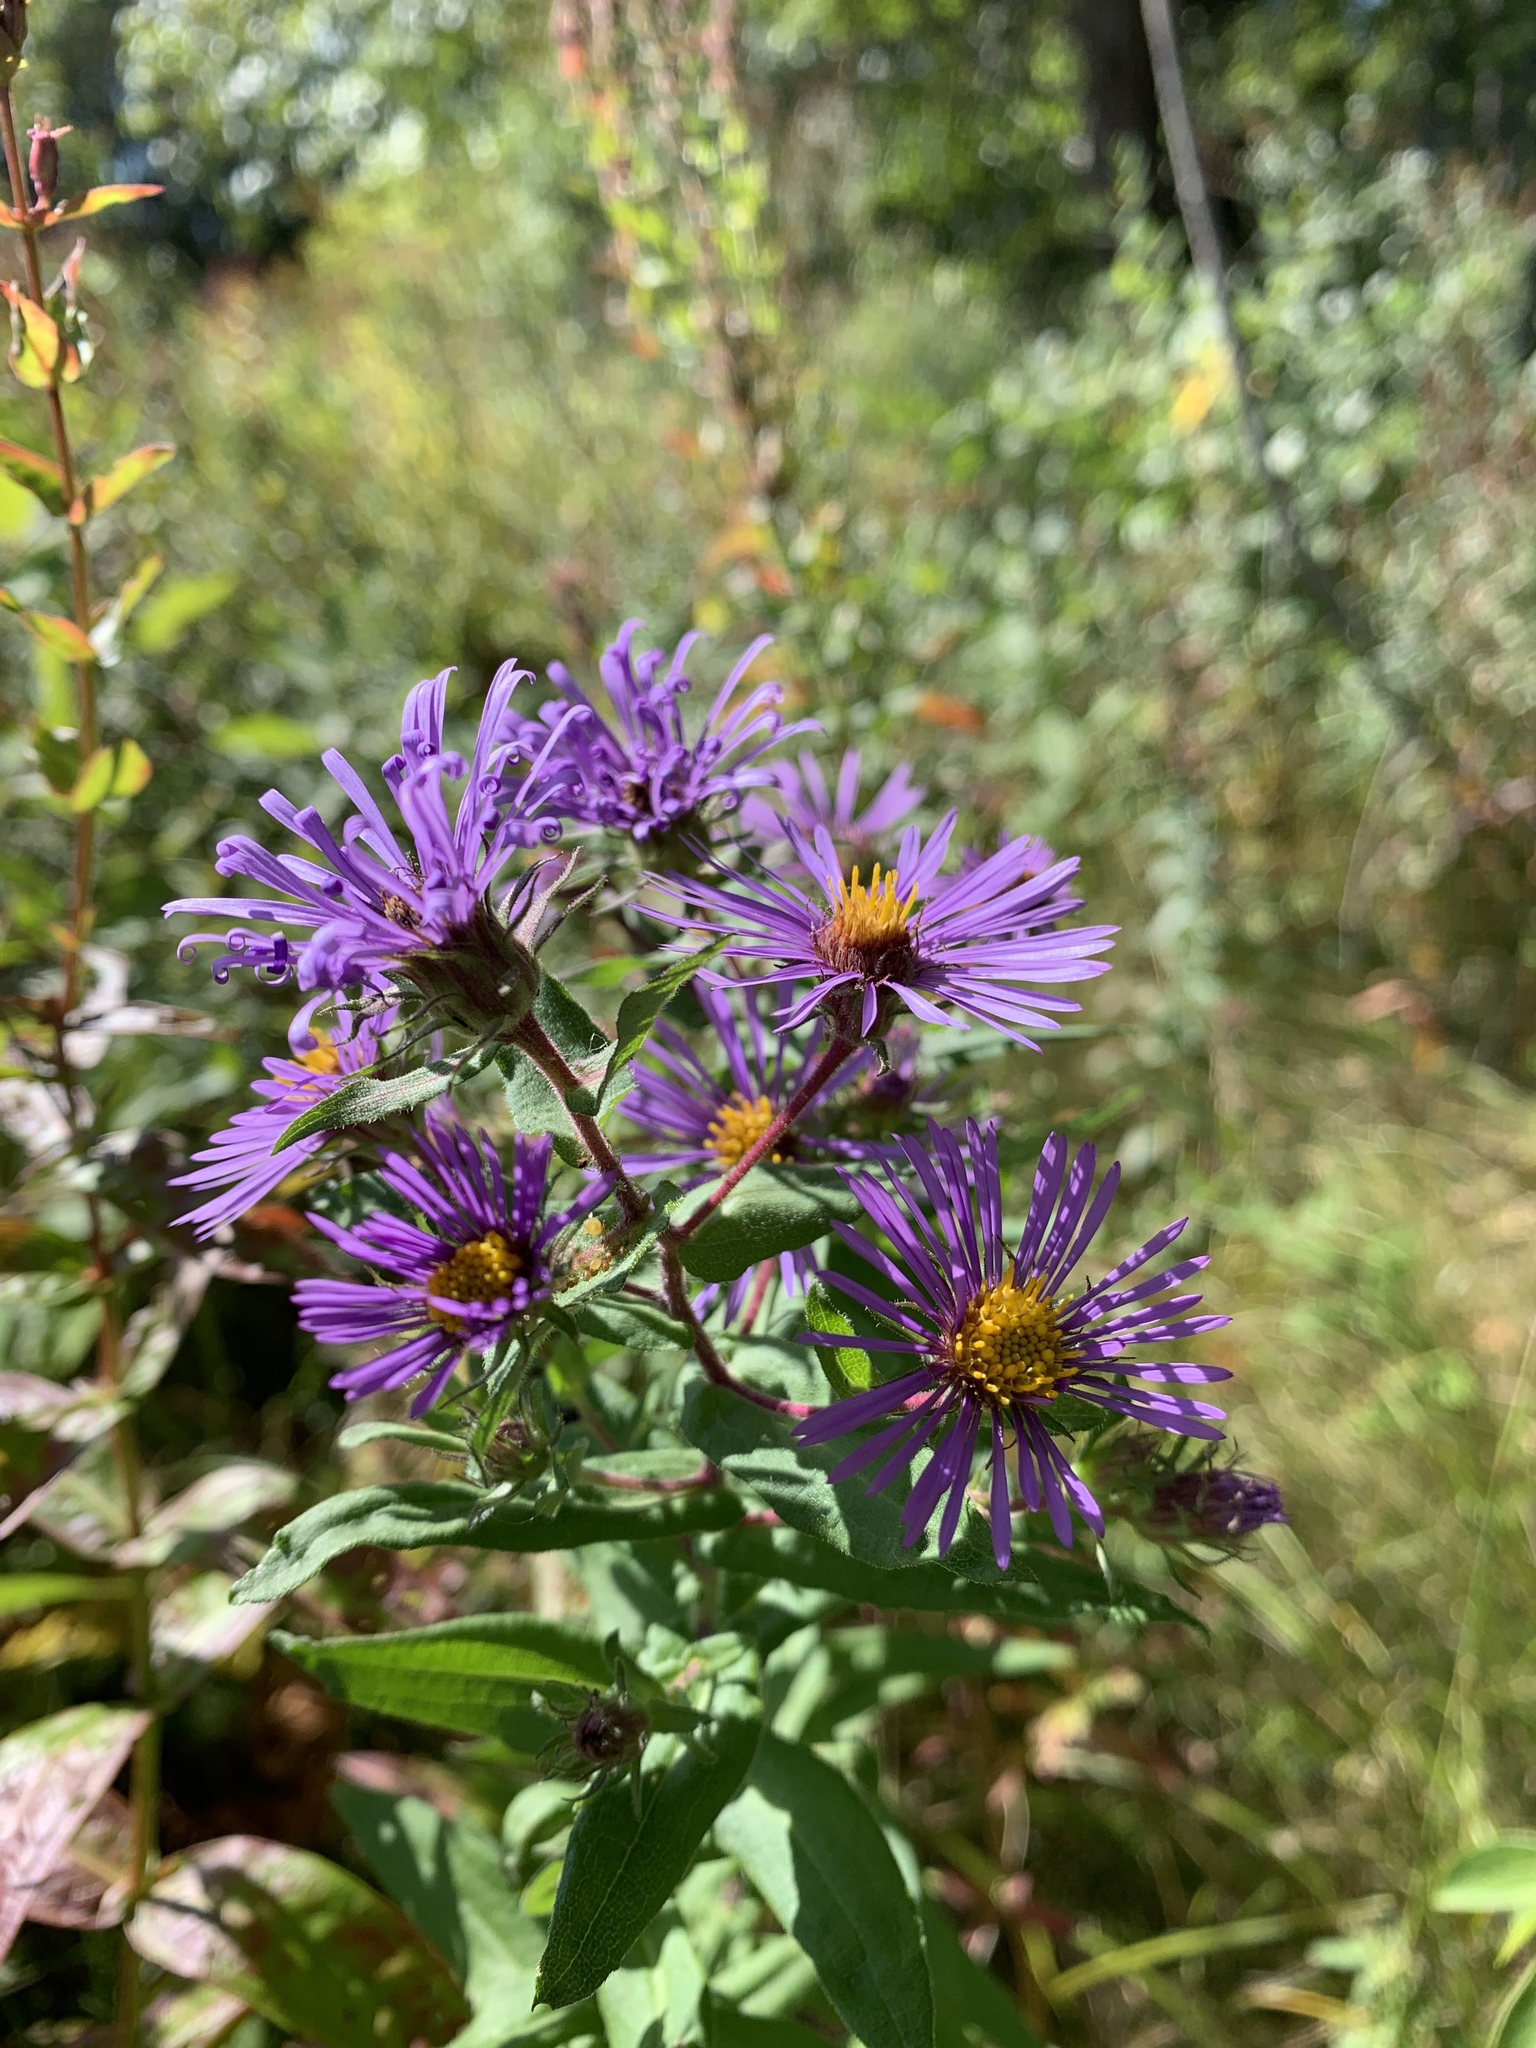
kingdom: Plantae
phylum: Tracheophyta
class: Magnoliopsida
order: Asterales
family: Asteraceae
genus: Symphyotrichum
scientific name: Symphyotrichum novae-angliae
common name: Michaelmas daisy
